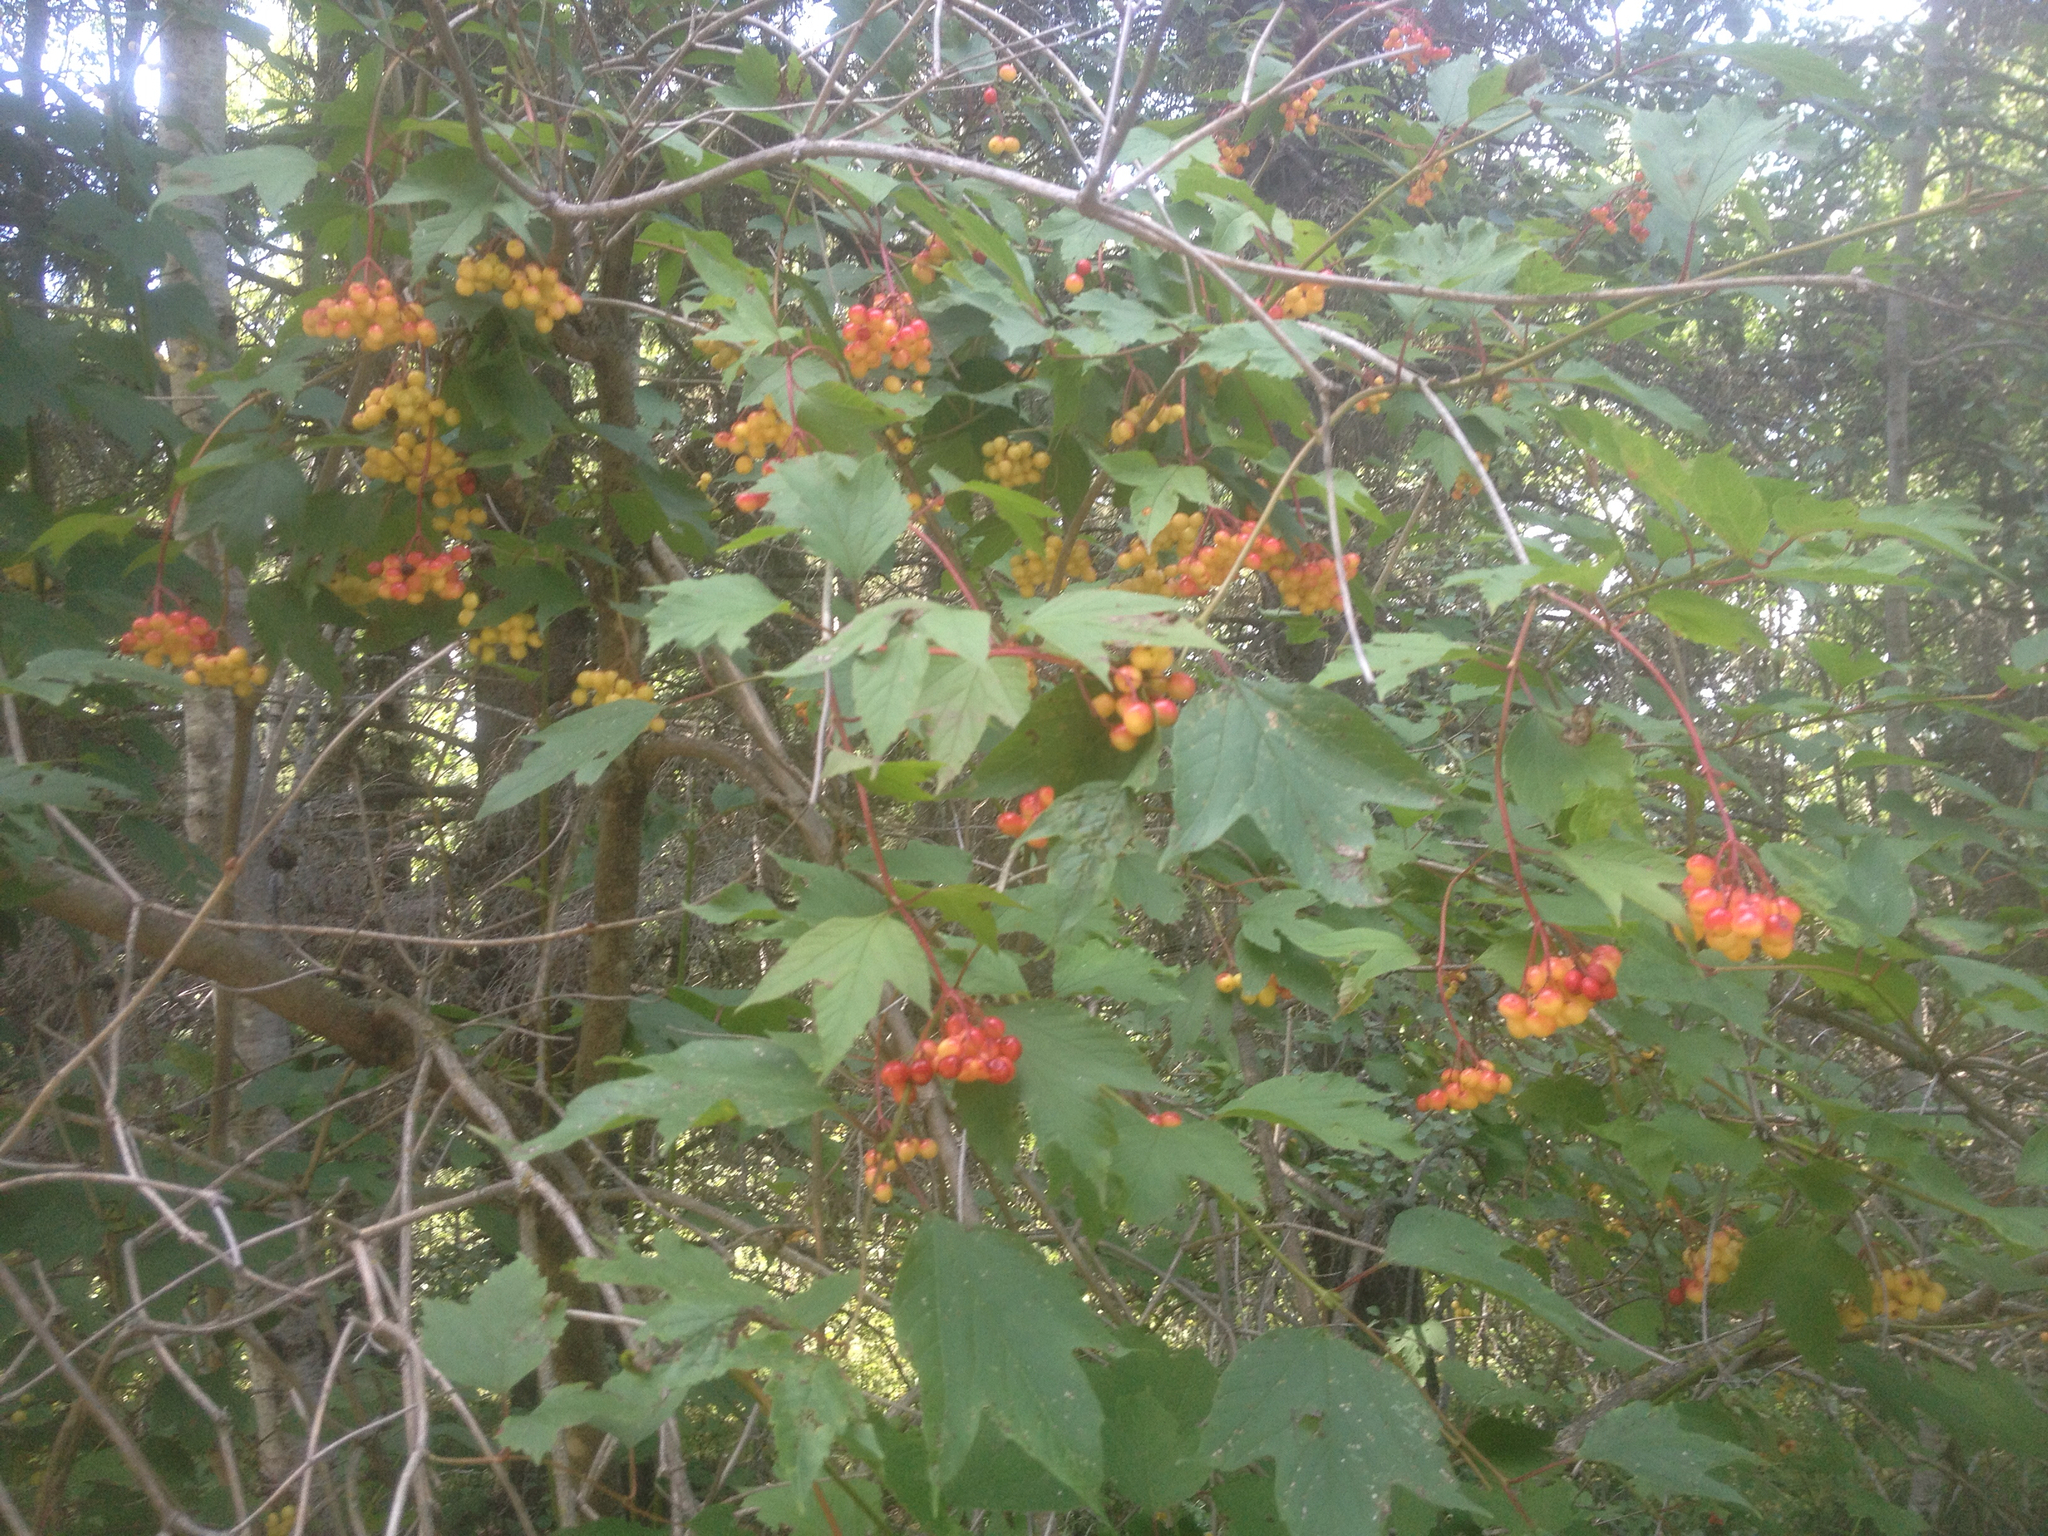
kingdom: Plantae
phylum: Tracheophyta
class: Magnoliopsida
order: Dipsacales
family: Viburnaceae
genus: Viburnum
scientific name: Viburnum opulus
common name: Guelder-rose
